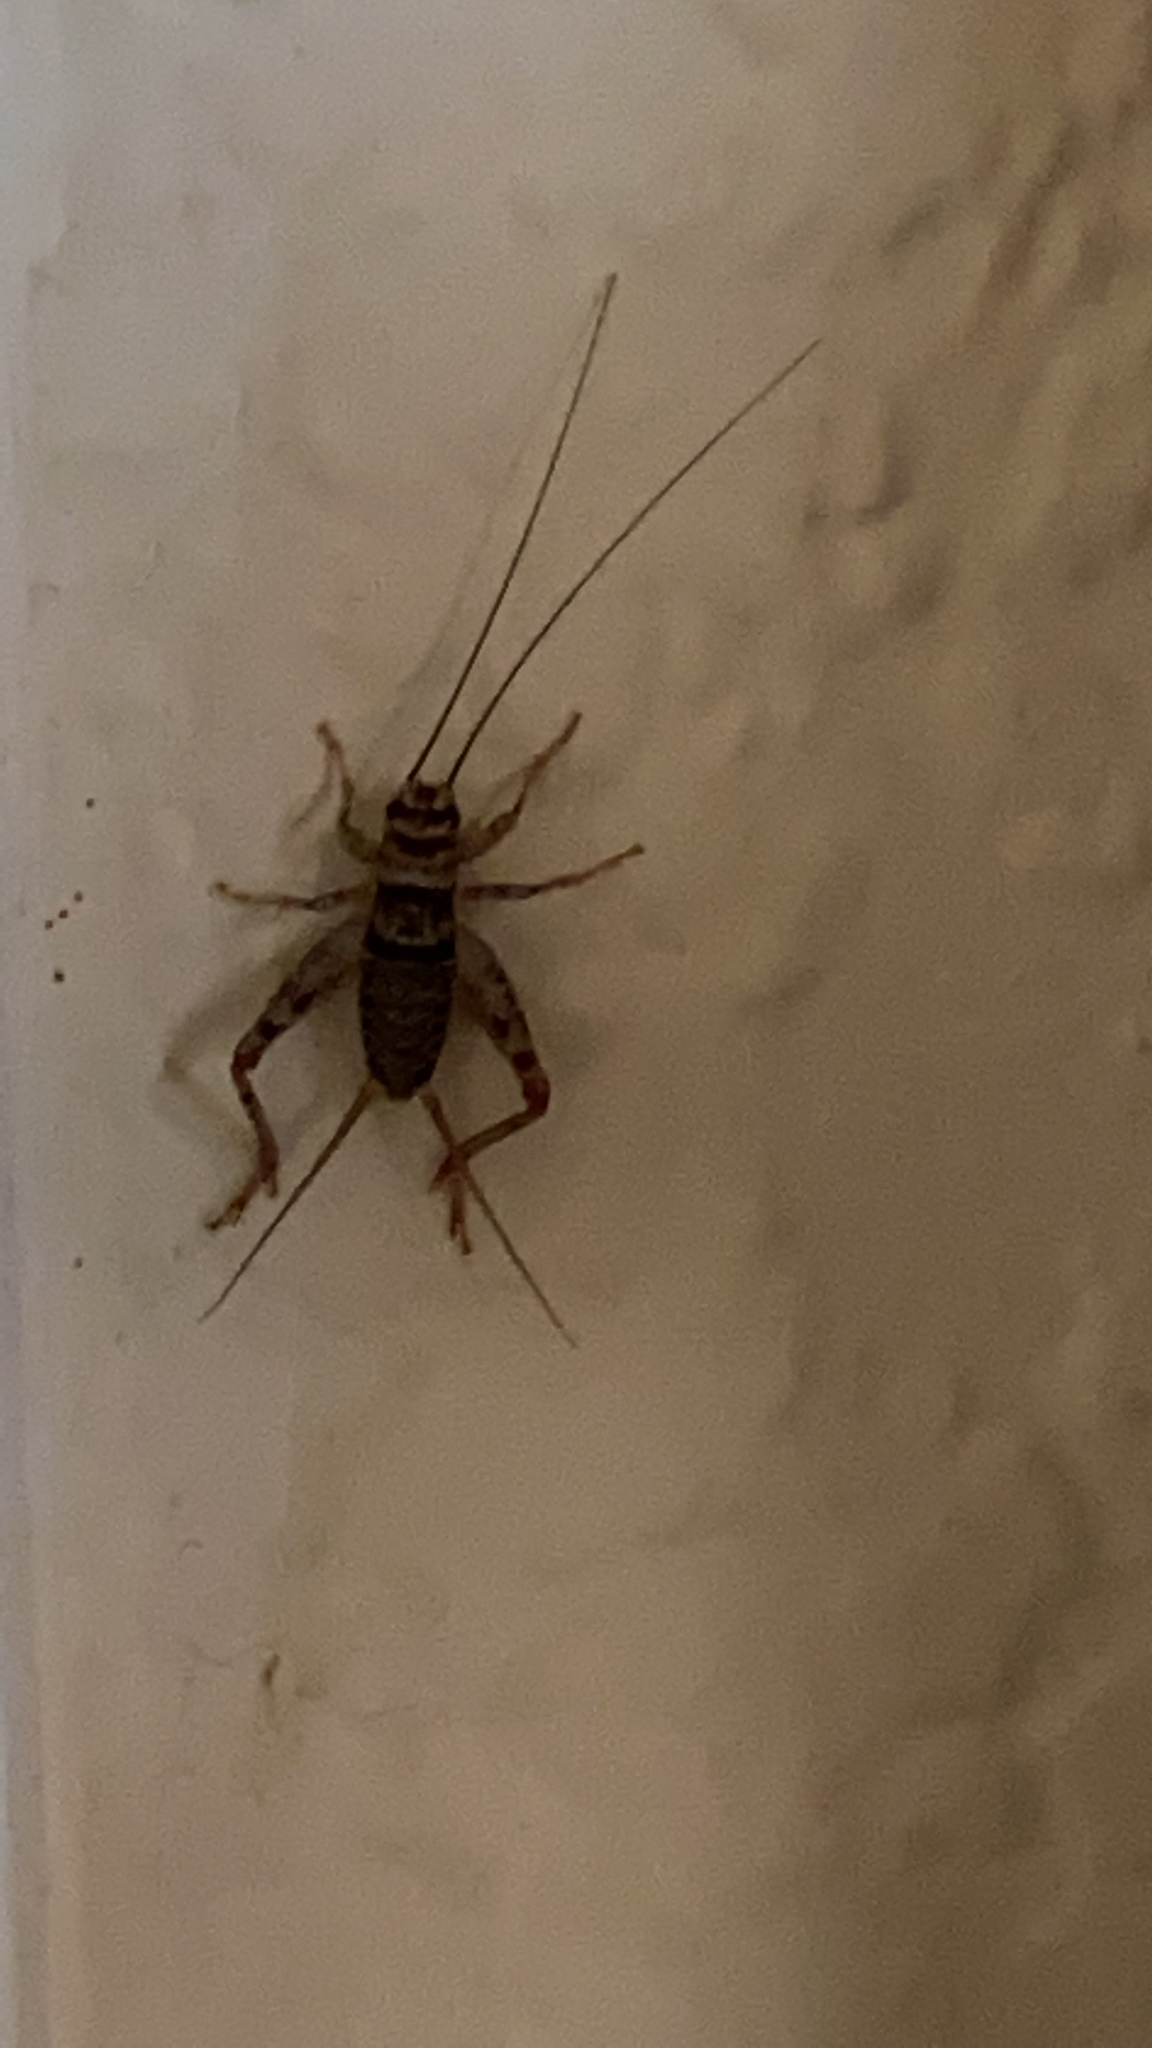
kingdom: Animalia
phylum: Arthropoda
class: Insecta
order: Orthoptera
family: Gryllidae
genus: Gryllodes
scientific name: Gryllodes sigillatus
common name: Tropical house cricket
